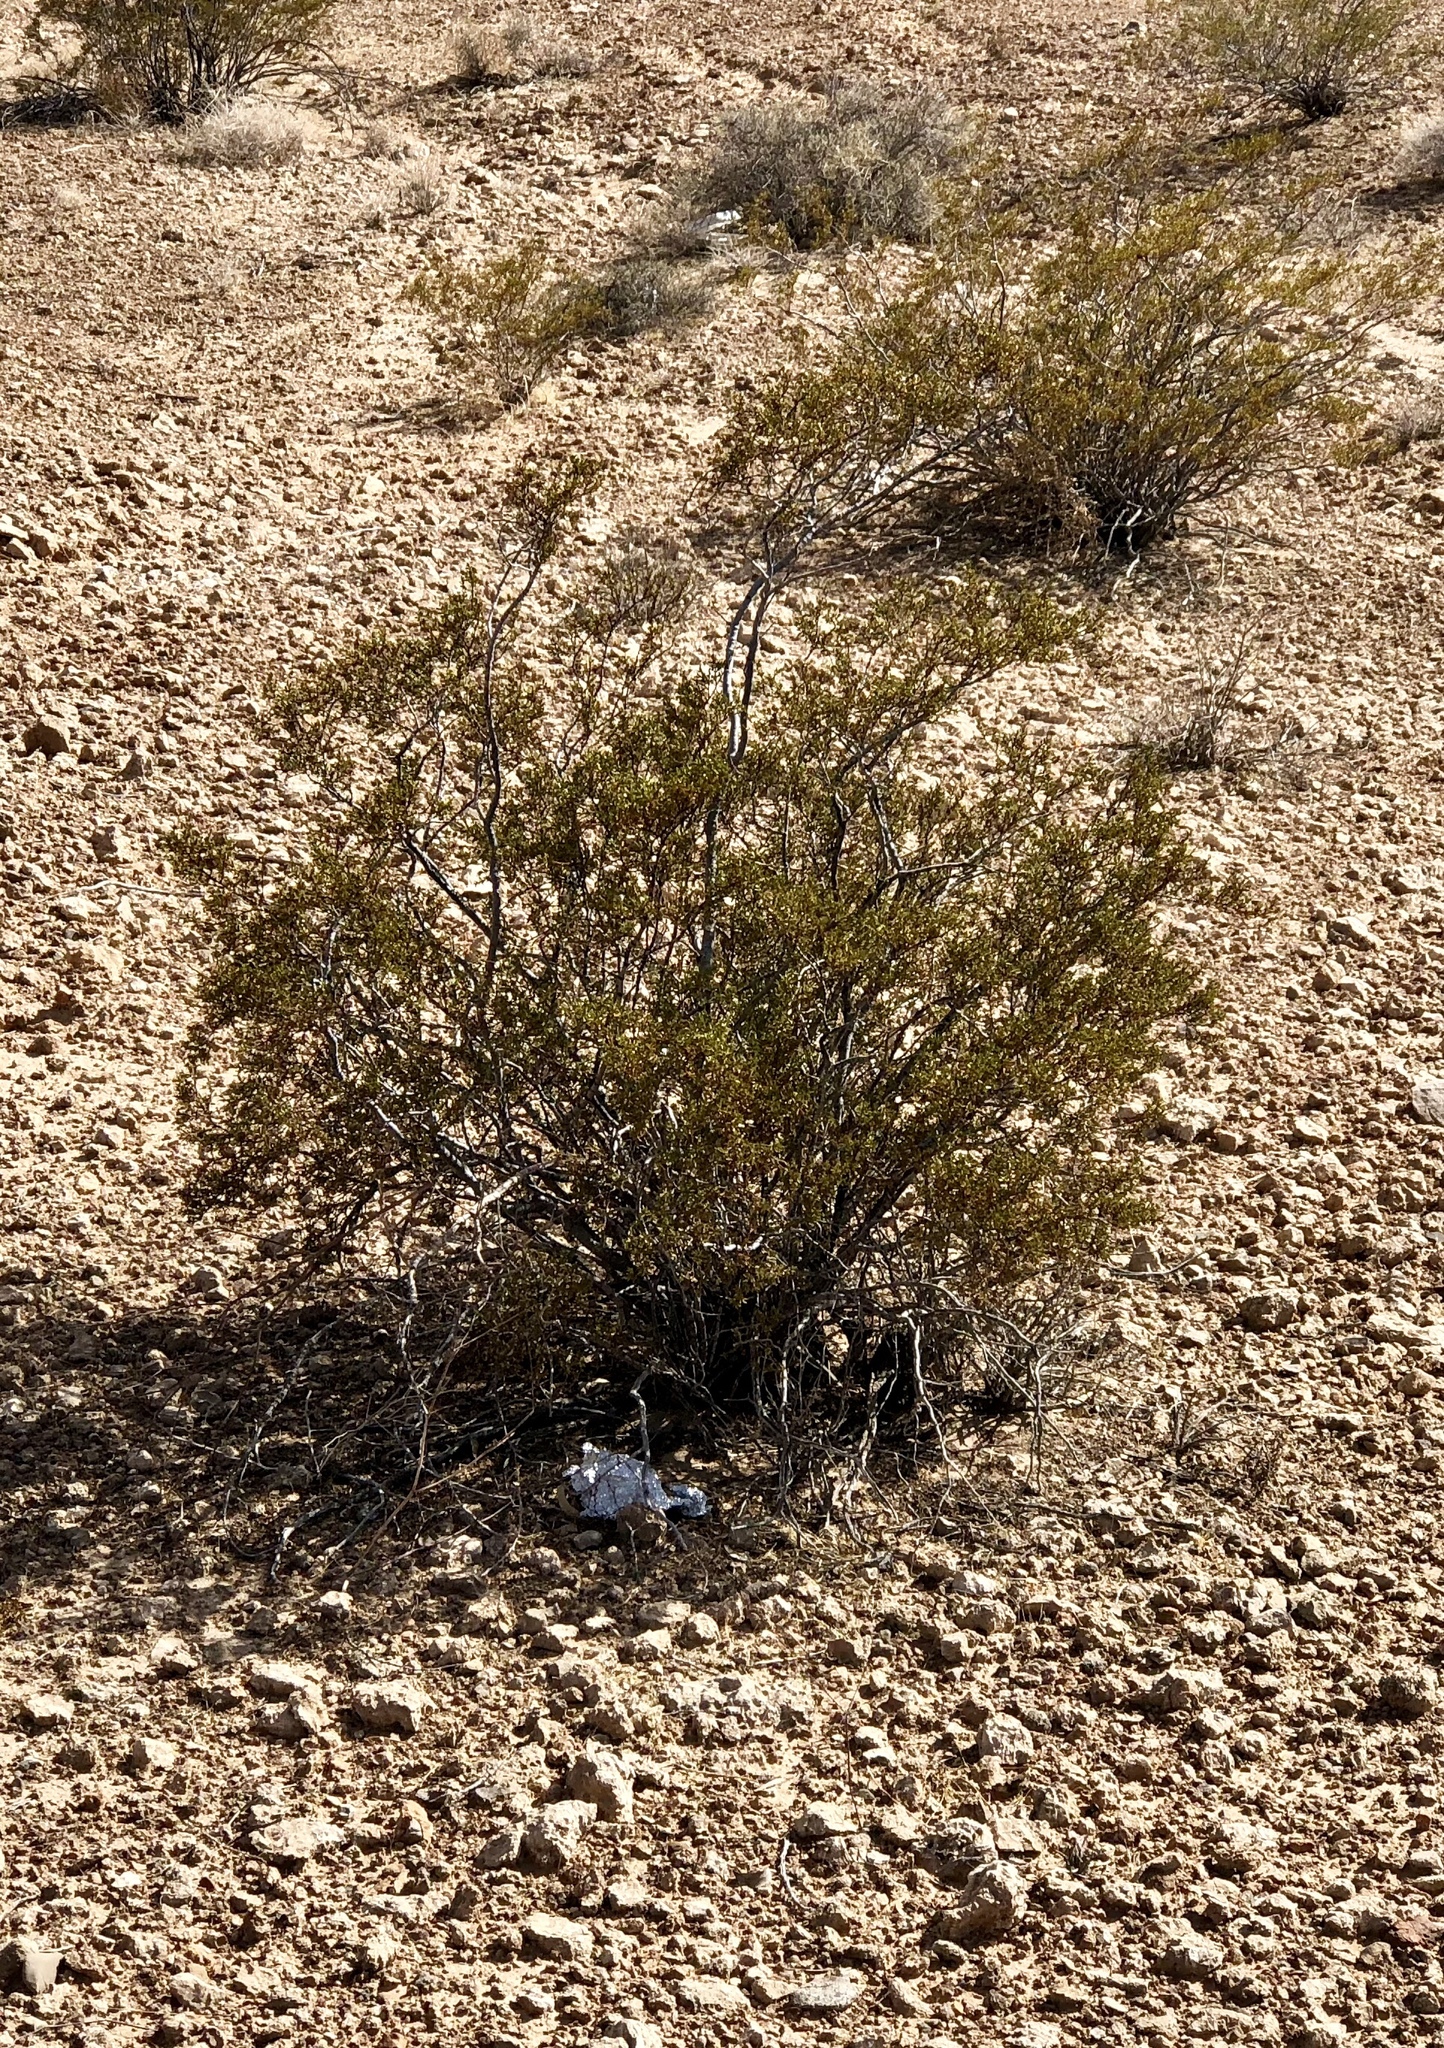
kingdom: Plantae
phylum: Tracheophyta
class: Magnoliopsida
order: Zygophyllales
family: Zygophyllaceae
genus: Larrea
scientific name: Larrea tridentata
